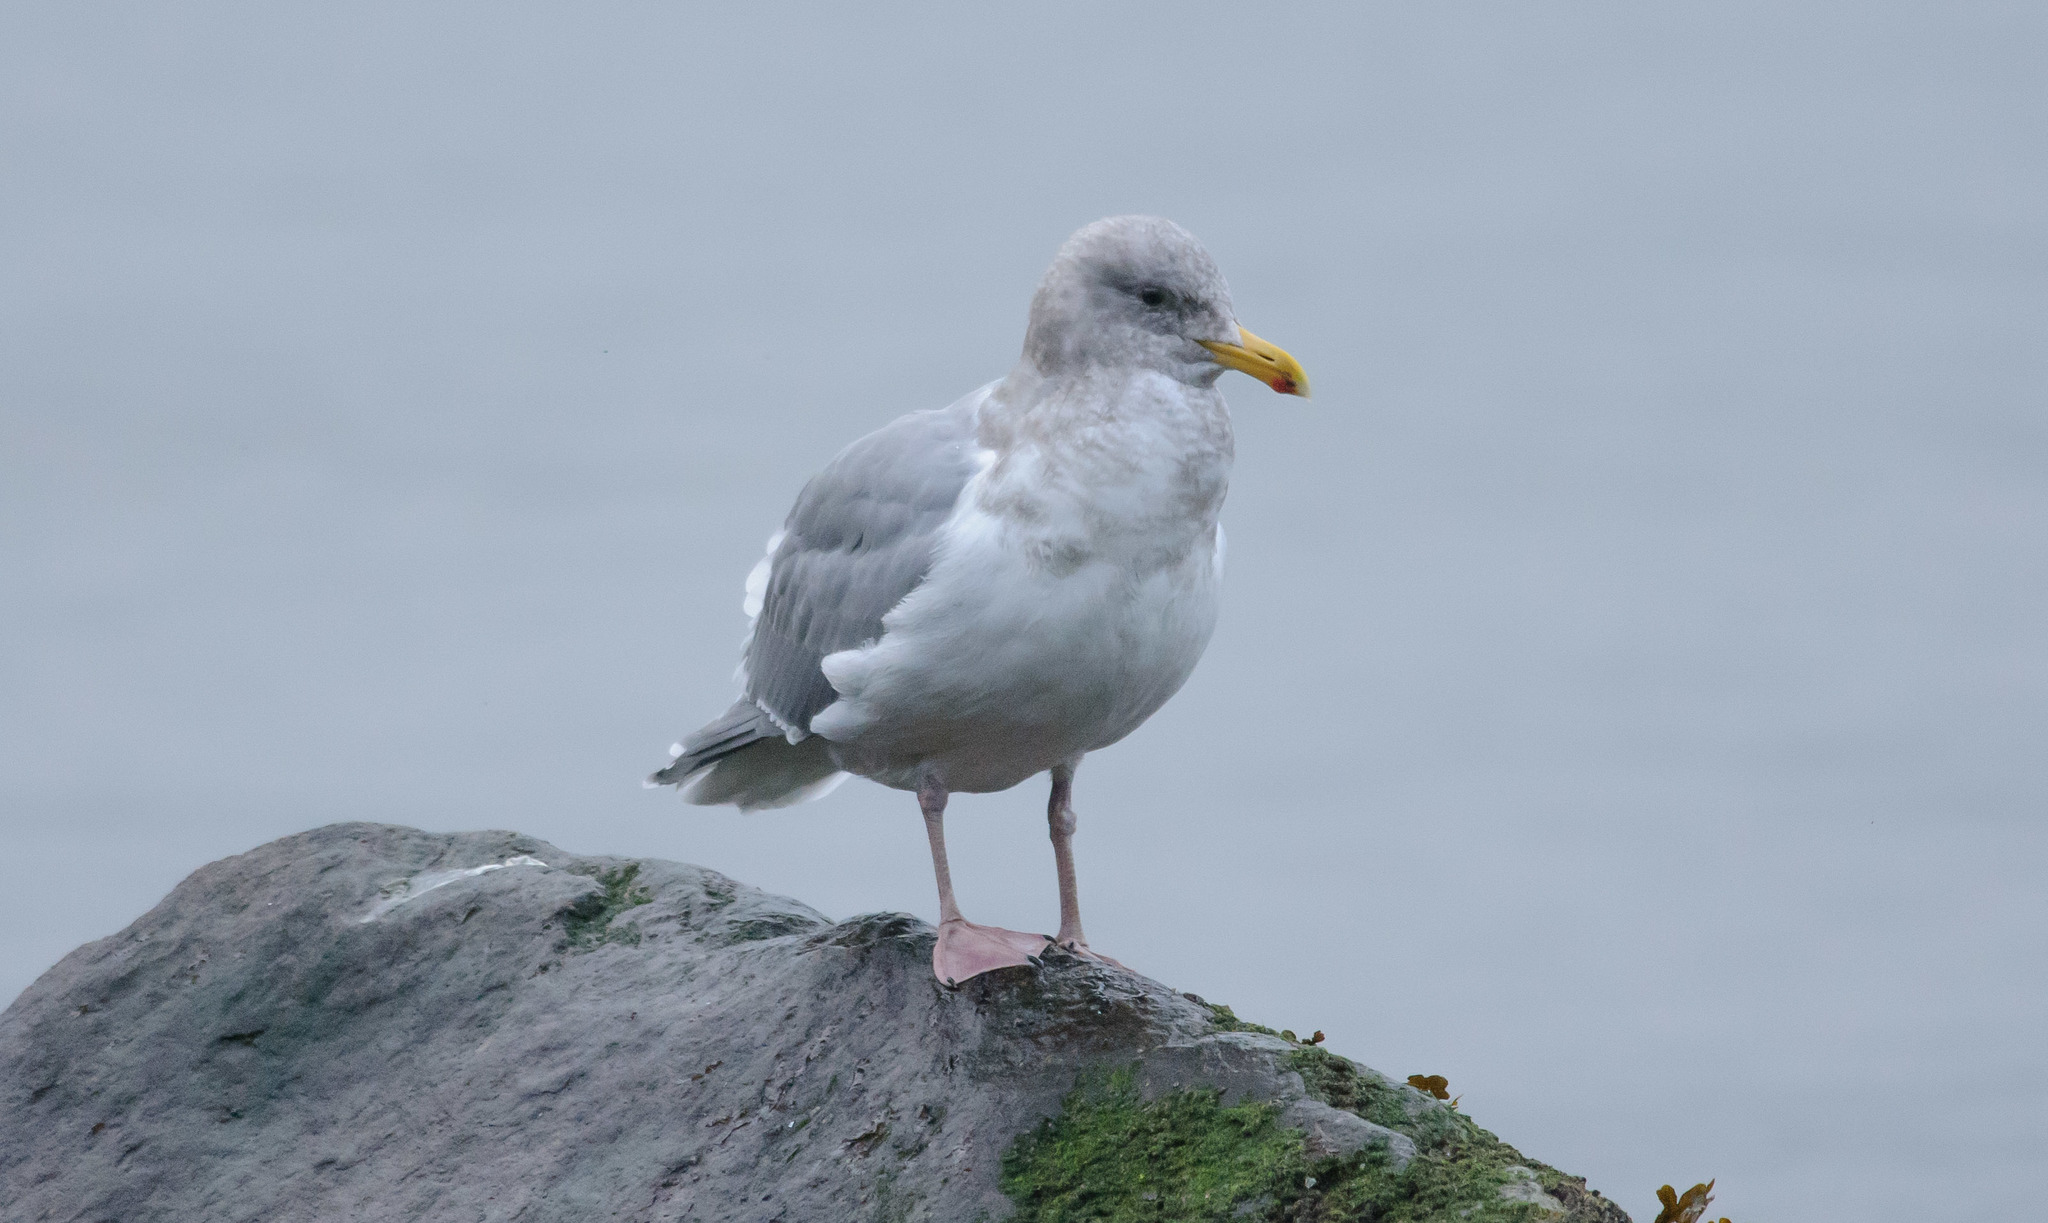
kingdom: Animalia
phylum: Chordata
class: Aves
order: Charadriiformes
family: Laridae
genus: Larus
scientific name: Larus glaucescens
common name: Glaucous-winged gull
